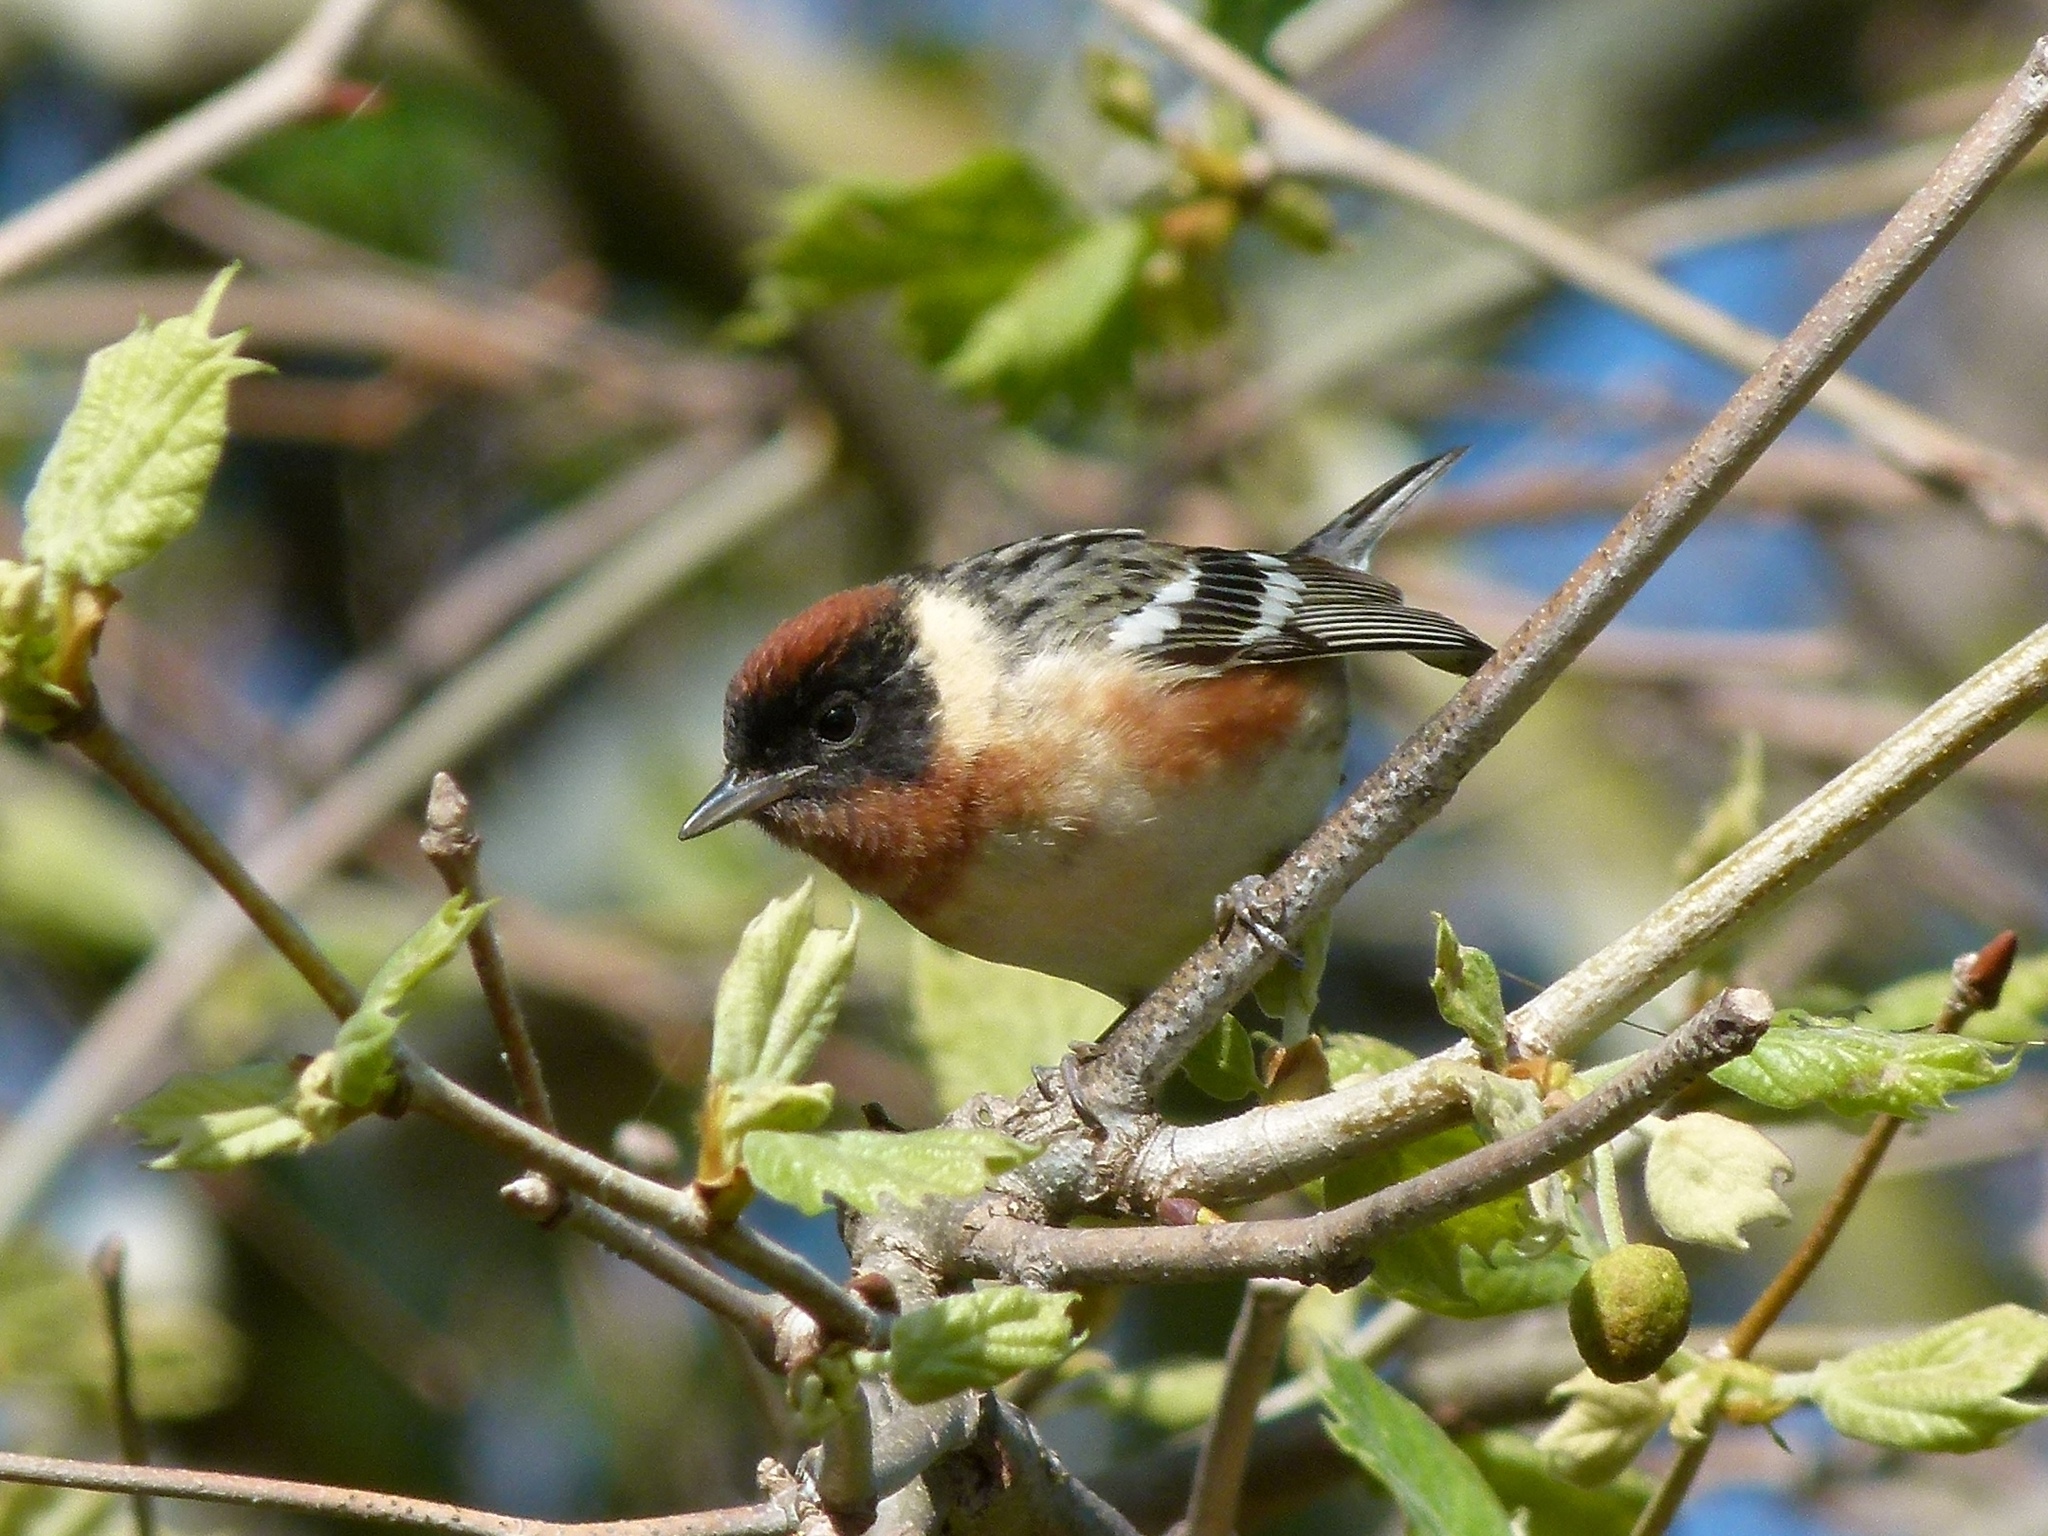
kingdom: Animalia
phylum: Chordata
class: Aves
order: Passeriformes
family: Parulidae
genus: Setophaga
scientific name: Setophaga castanea
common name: Bay-breasted warbler
